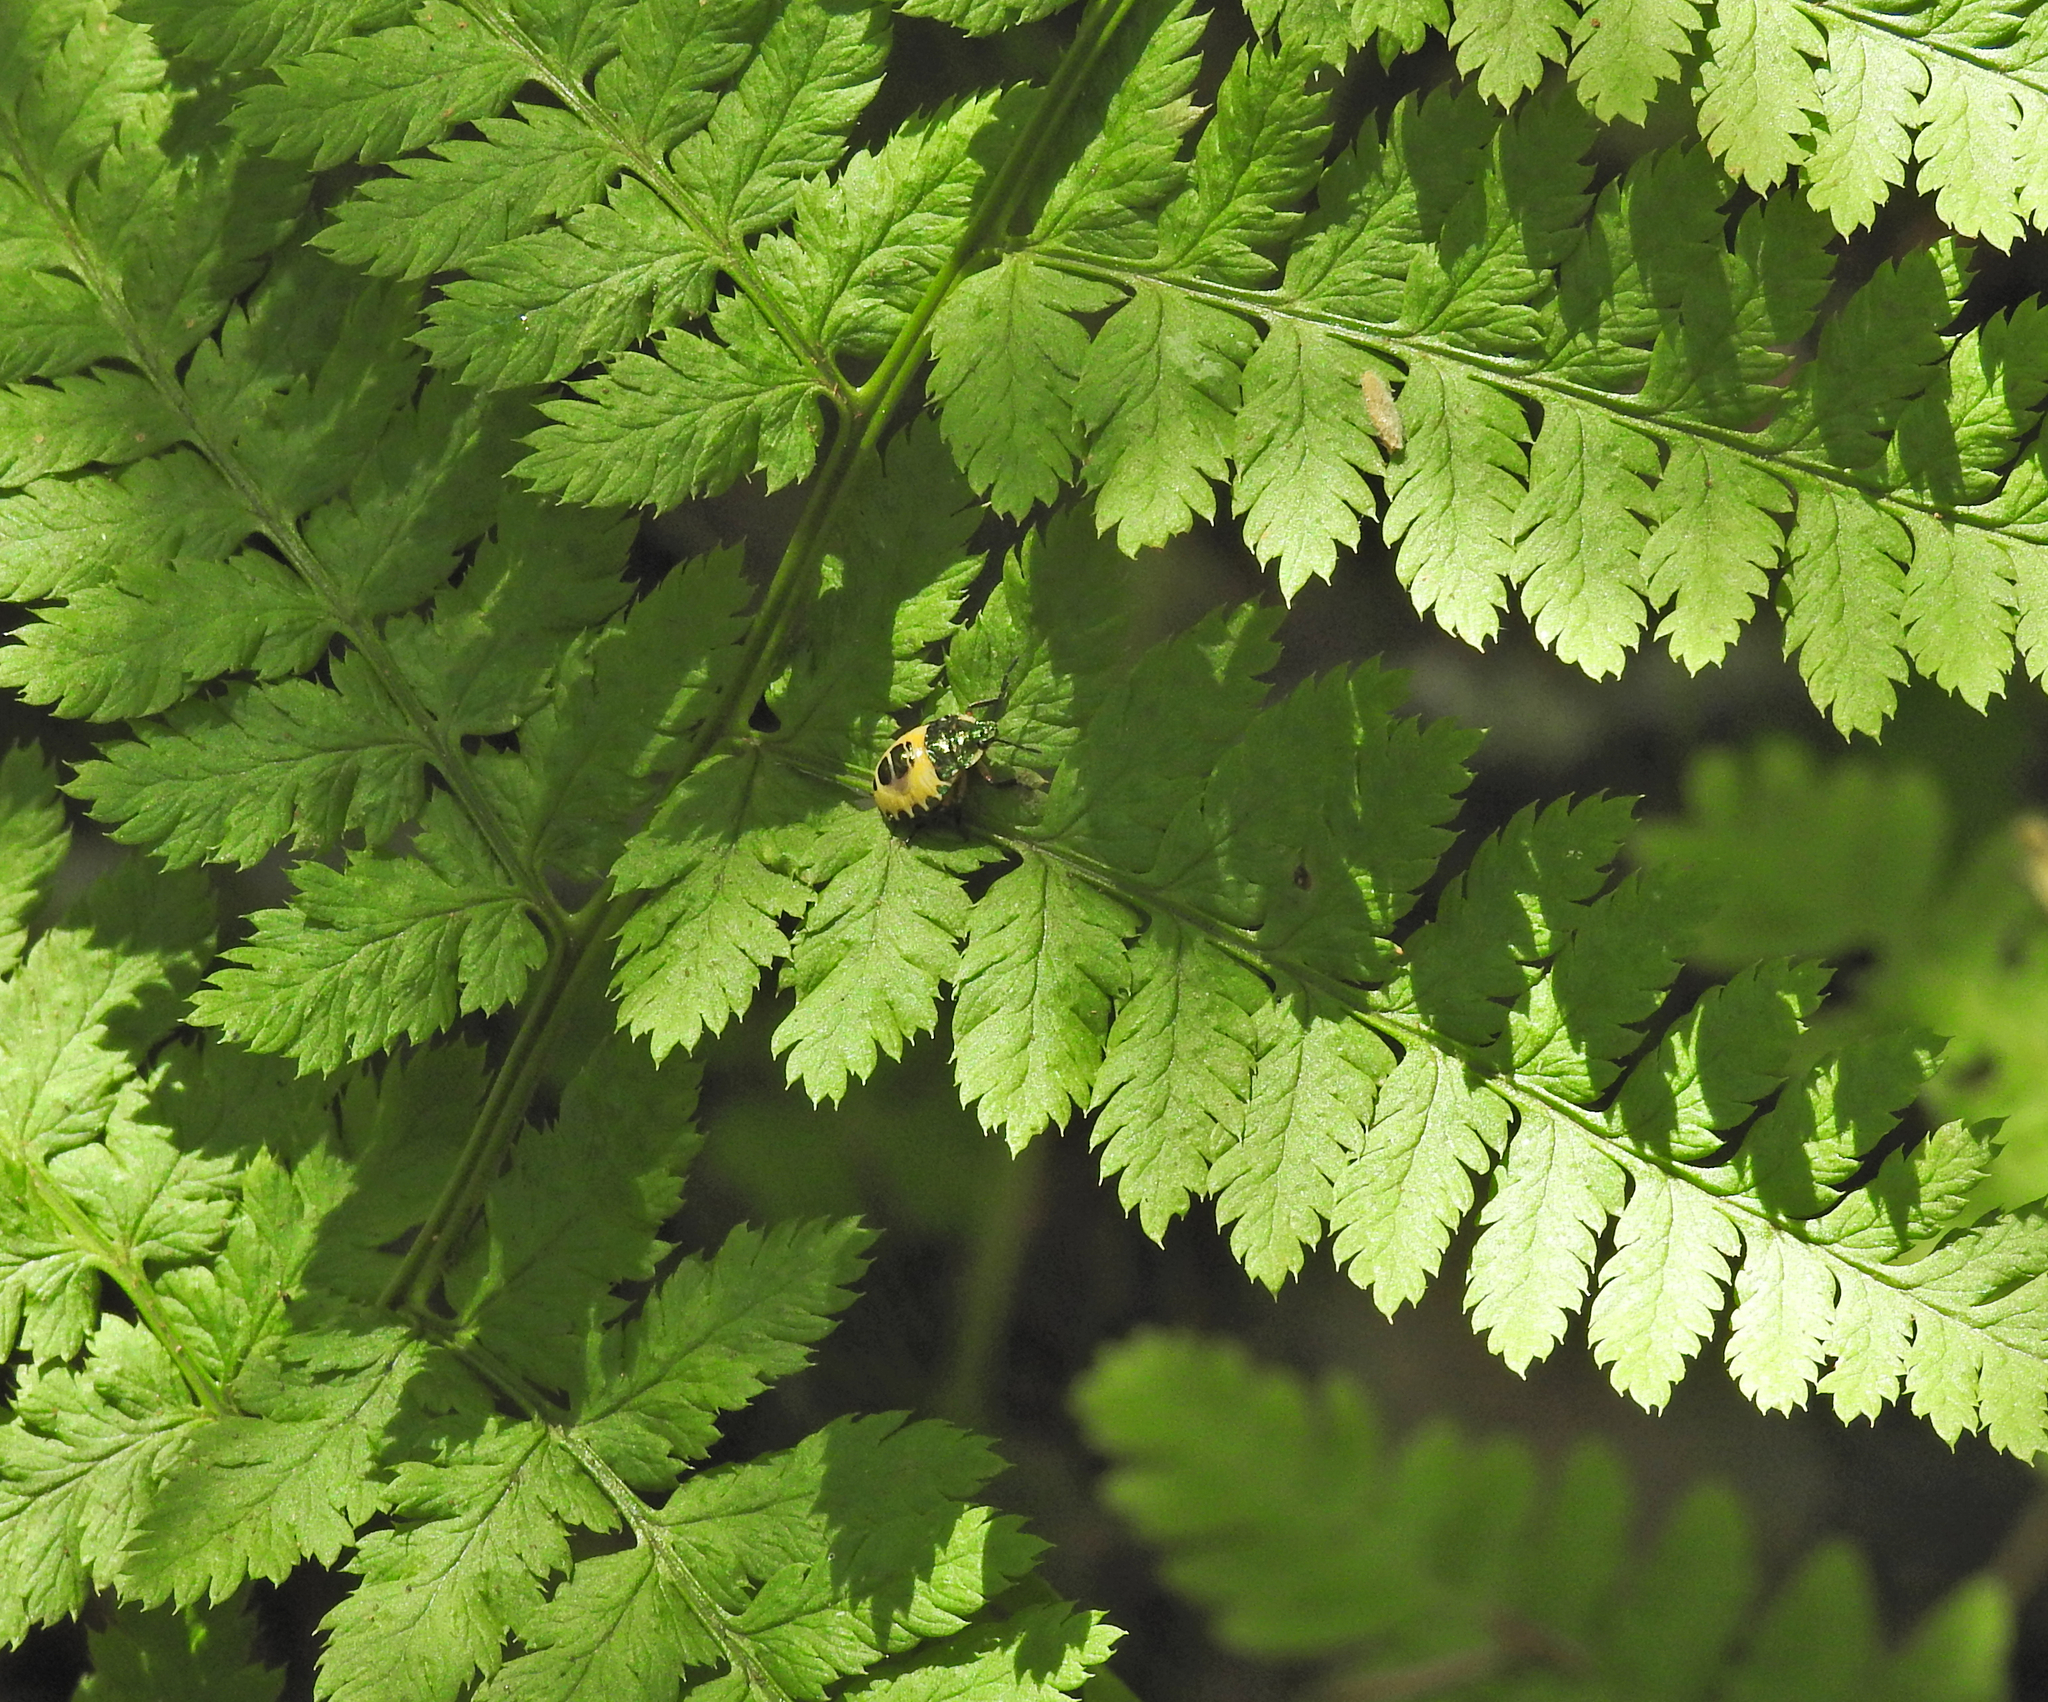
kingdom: Animalia
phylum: Arthropoda
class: Insecta
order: Hemiptera
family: Pentatomidae
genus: Troilus
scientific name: Troilus luridus
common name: Bronze shieldbug
